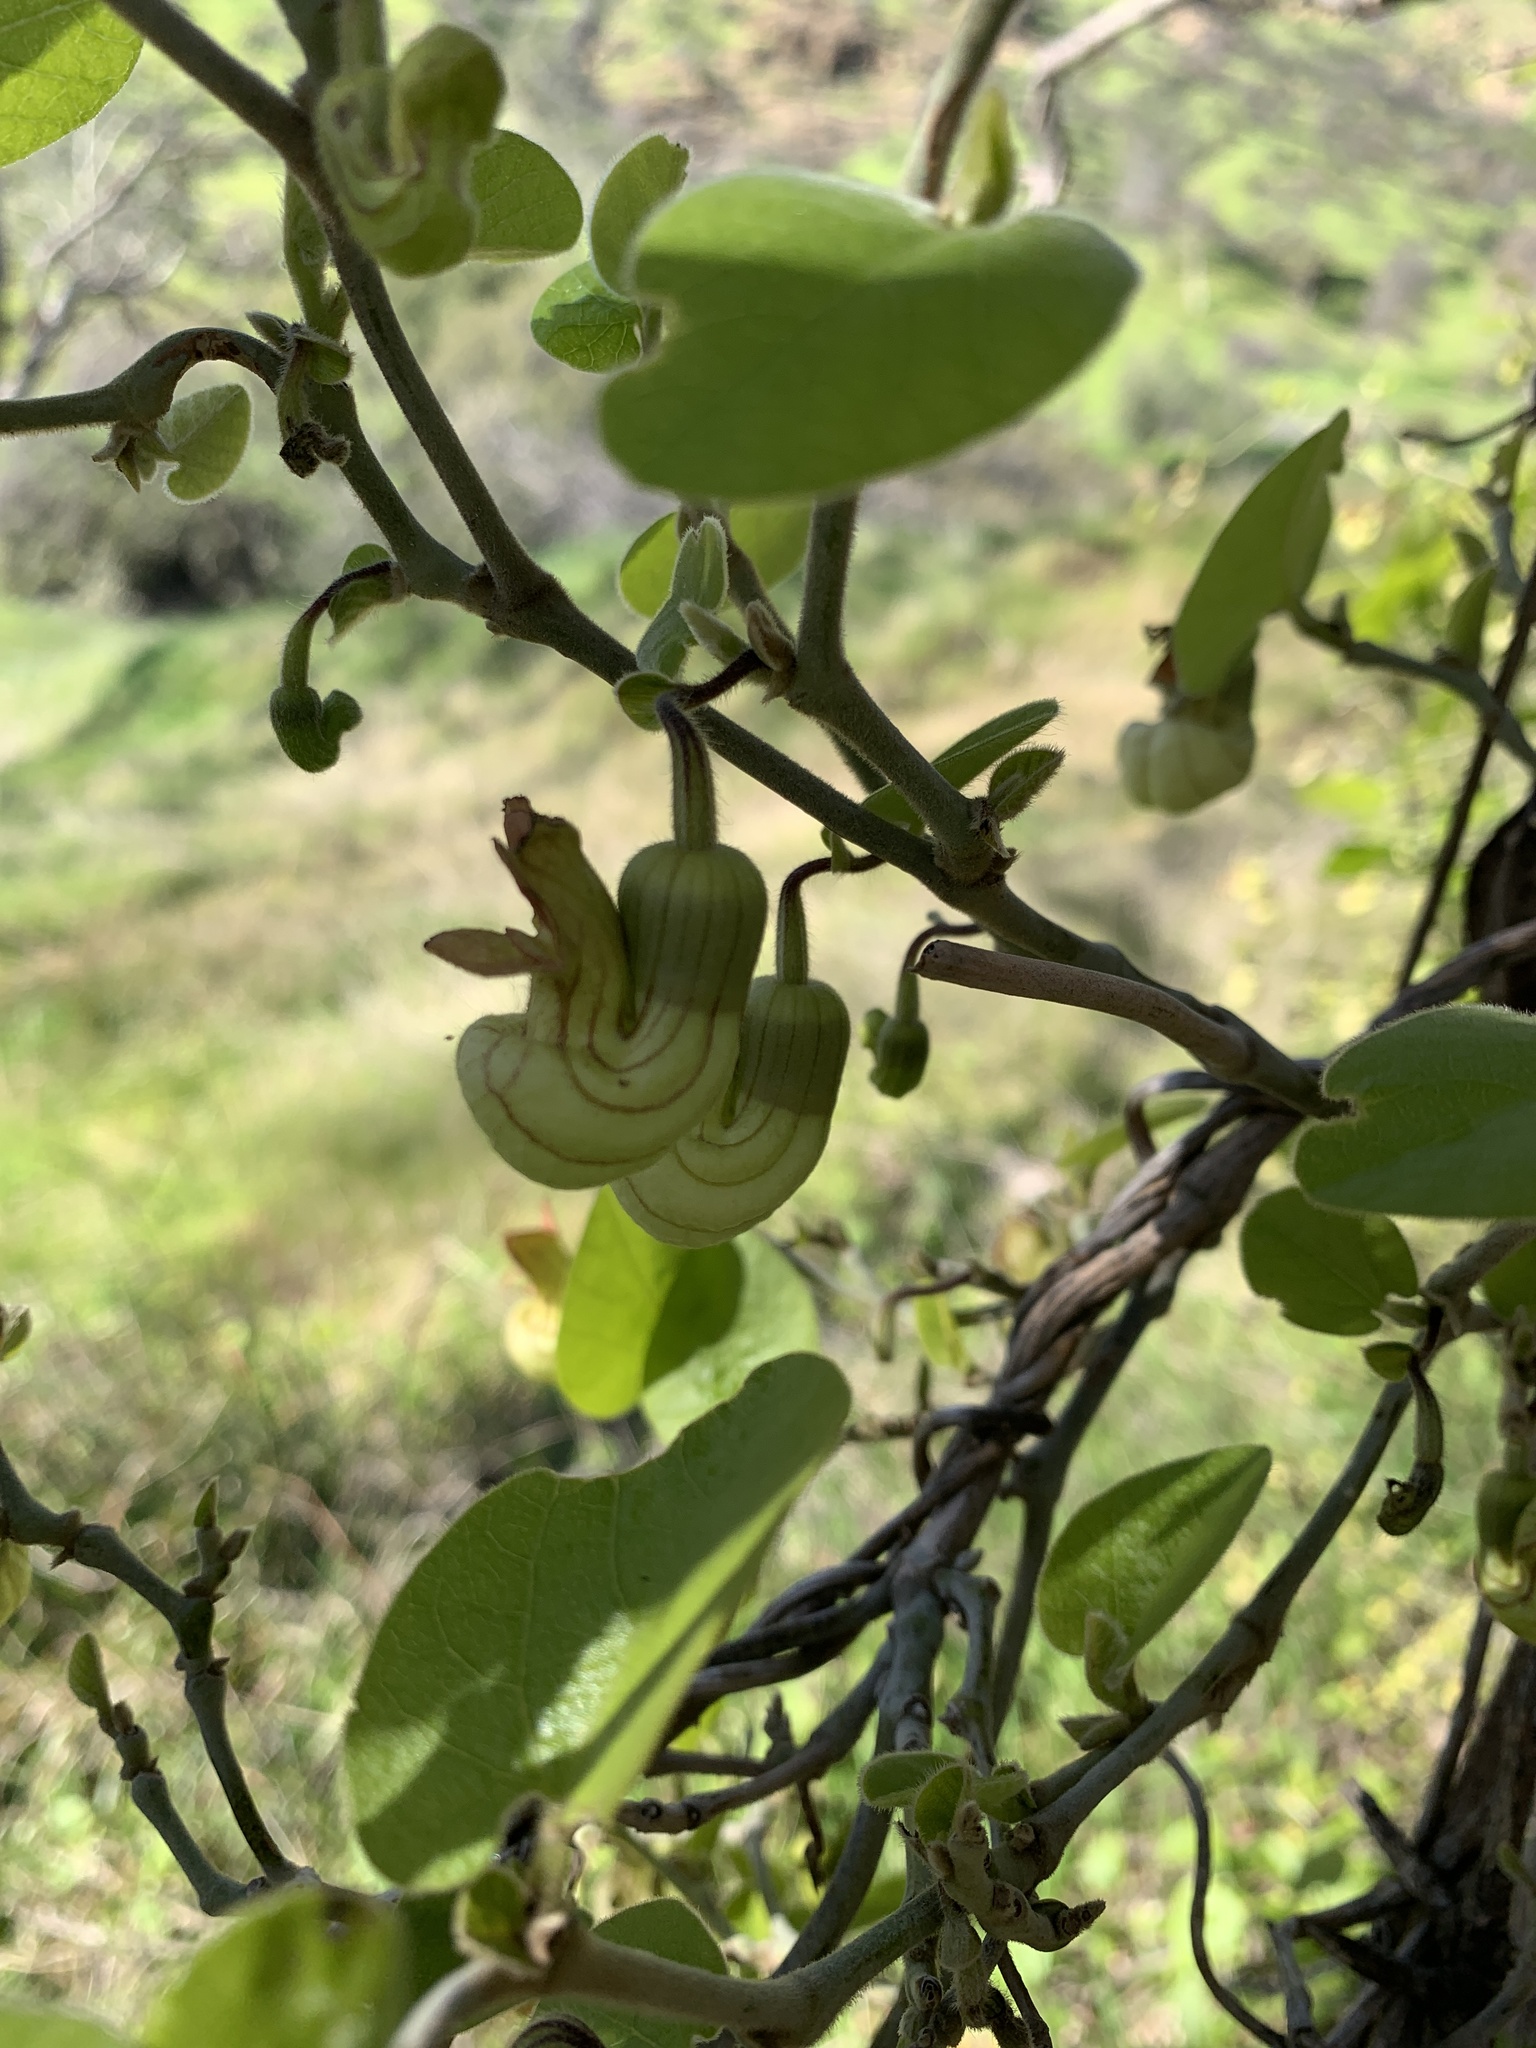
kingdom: Plantae
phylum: Tracheophyta
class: Magnoliopsida
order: Piperales
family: Aristolochiaceae
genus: Isotrema
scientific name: Isotrema californicum
